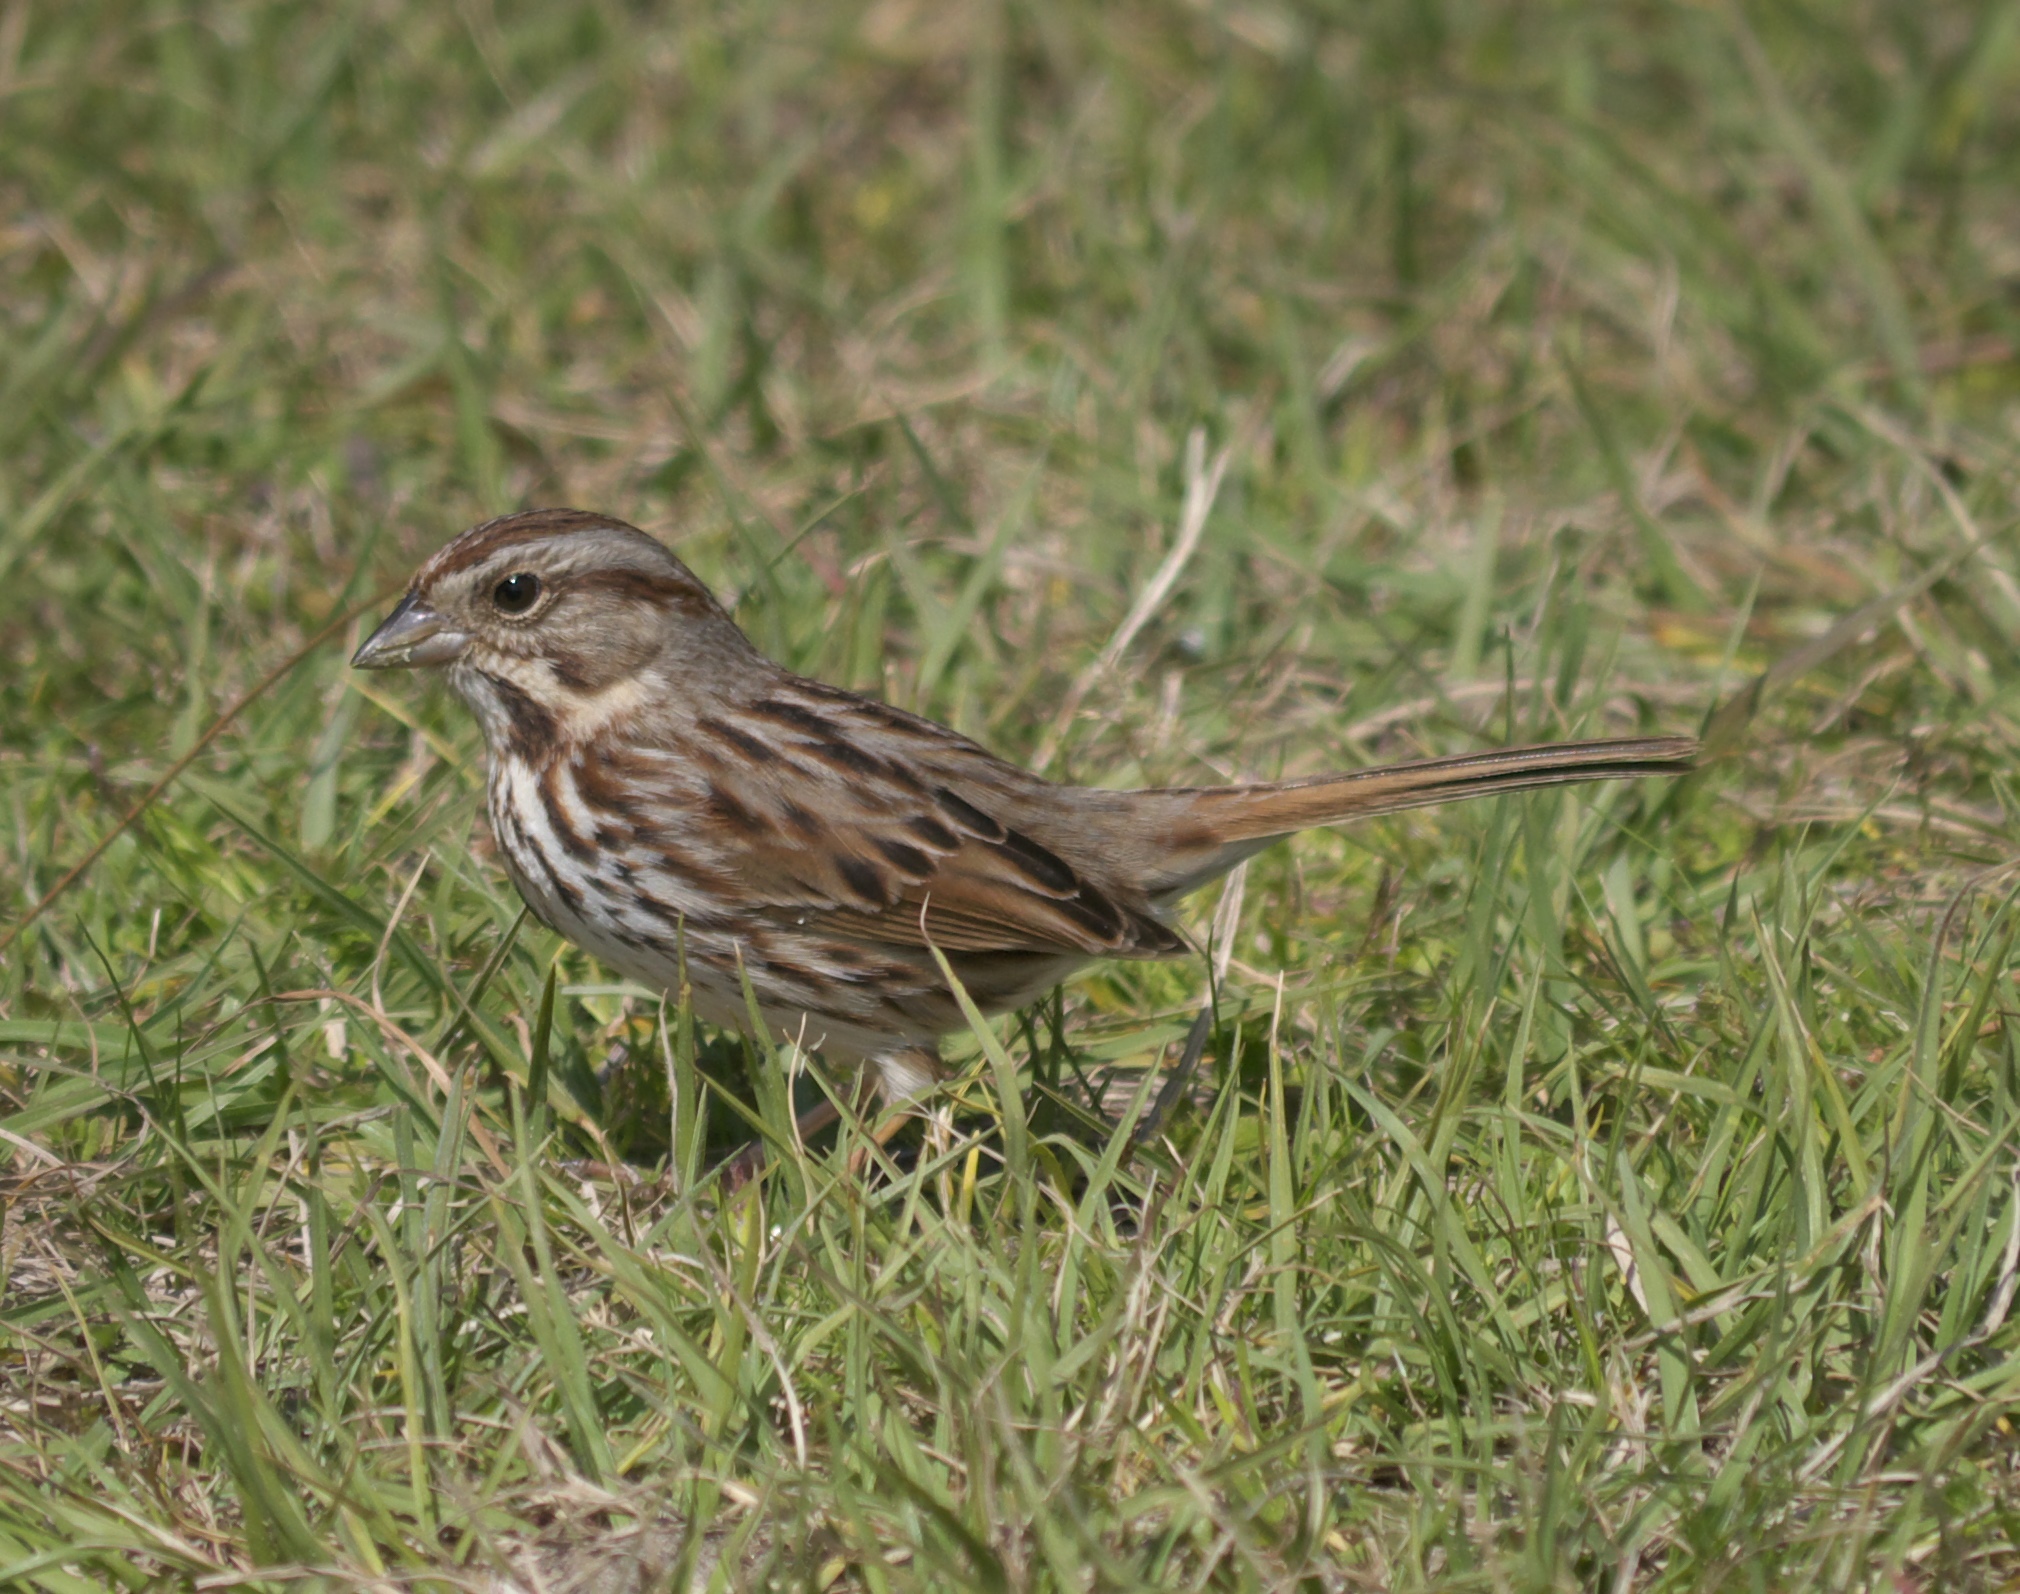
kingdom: Animalia
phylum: Chordata
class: Aves
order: Passeriformes
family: Passerellidae
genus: Melospiza
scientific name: Melospiza melodia
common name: Song sparrow
